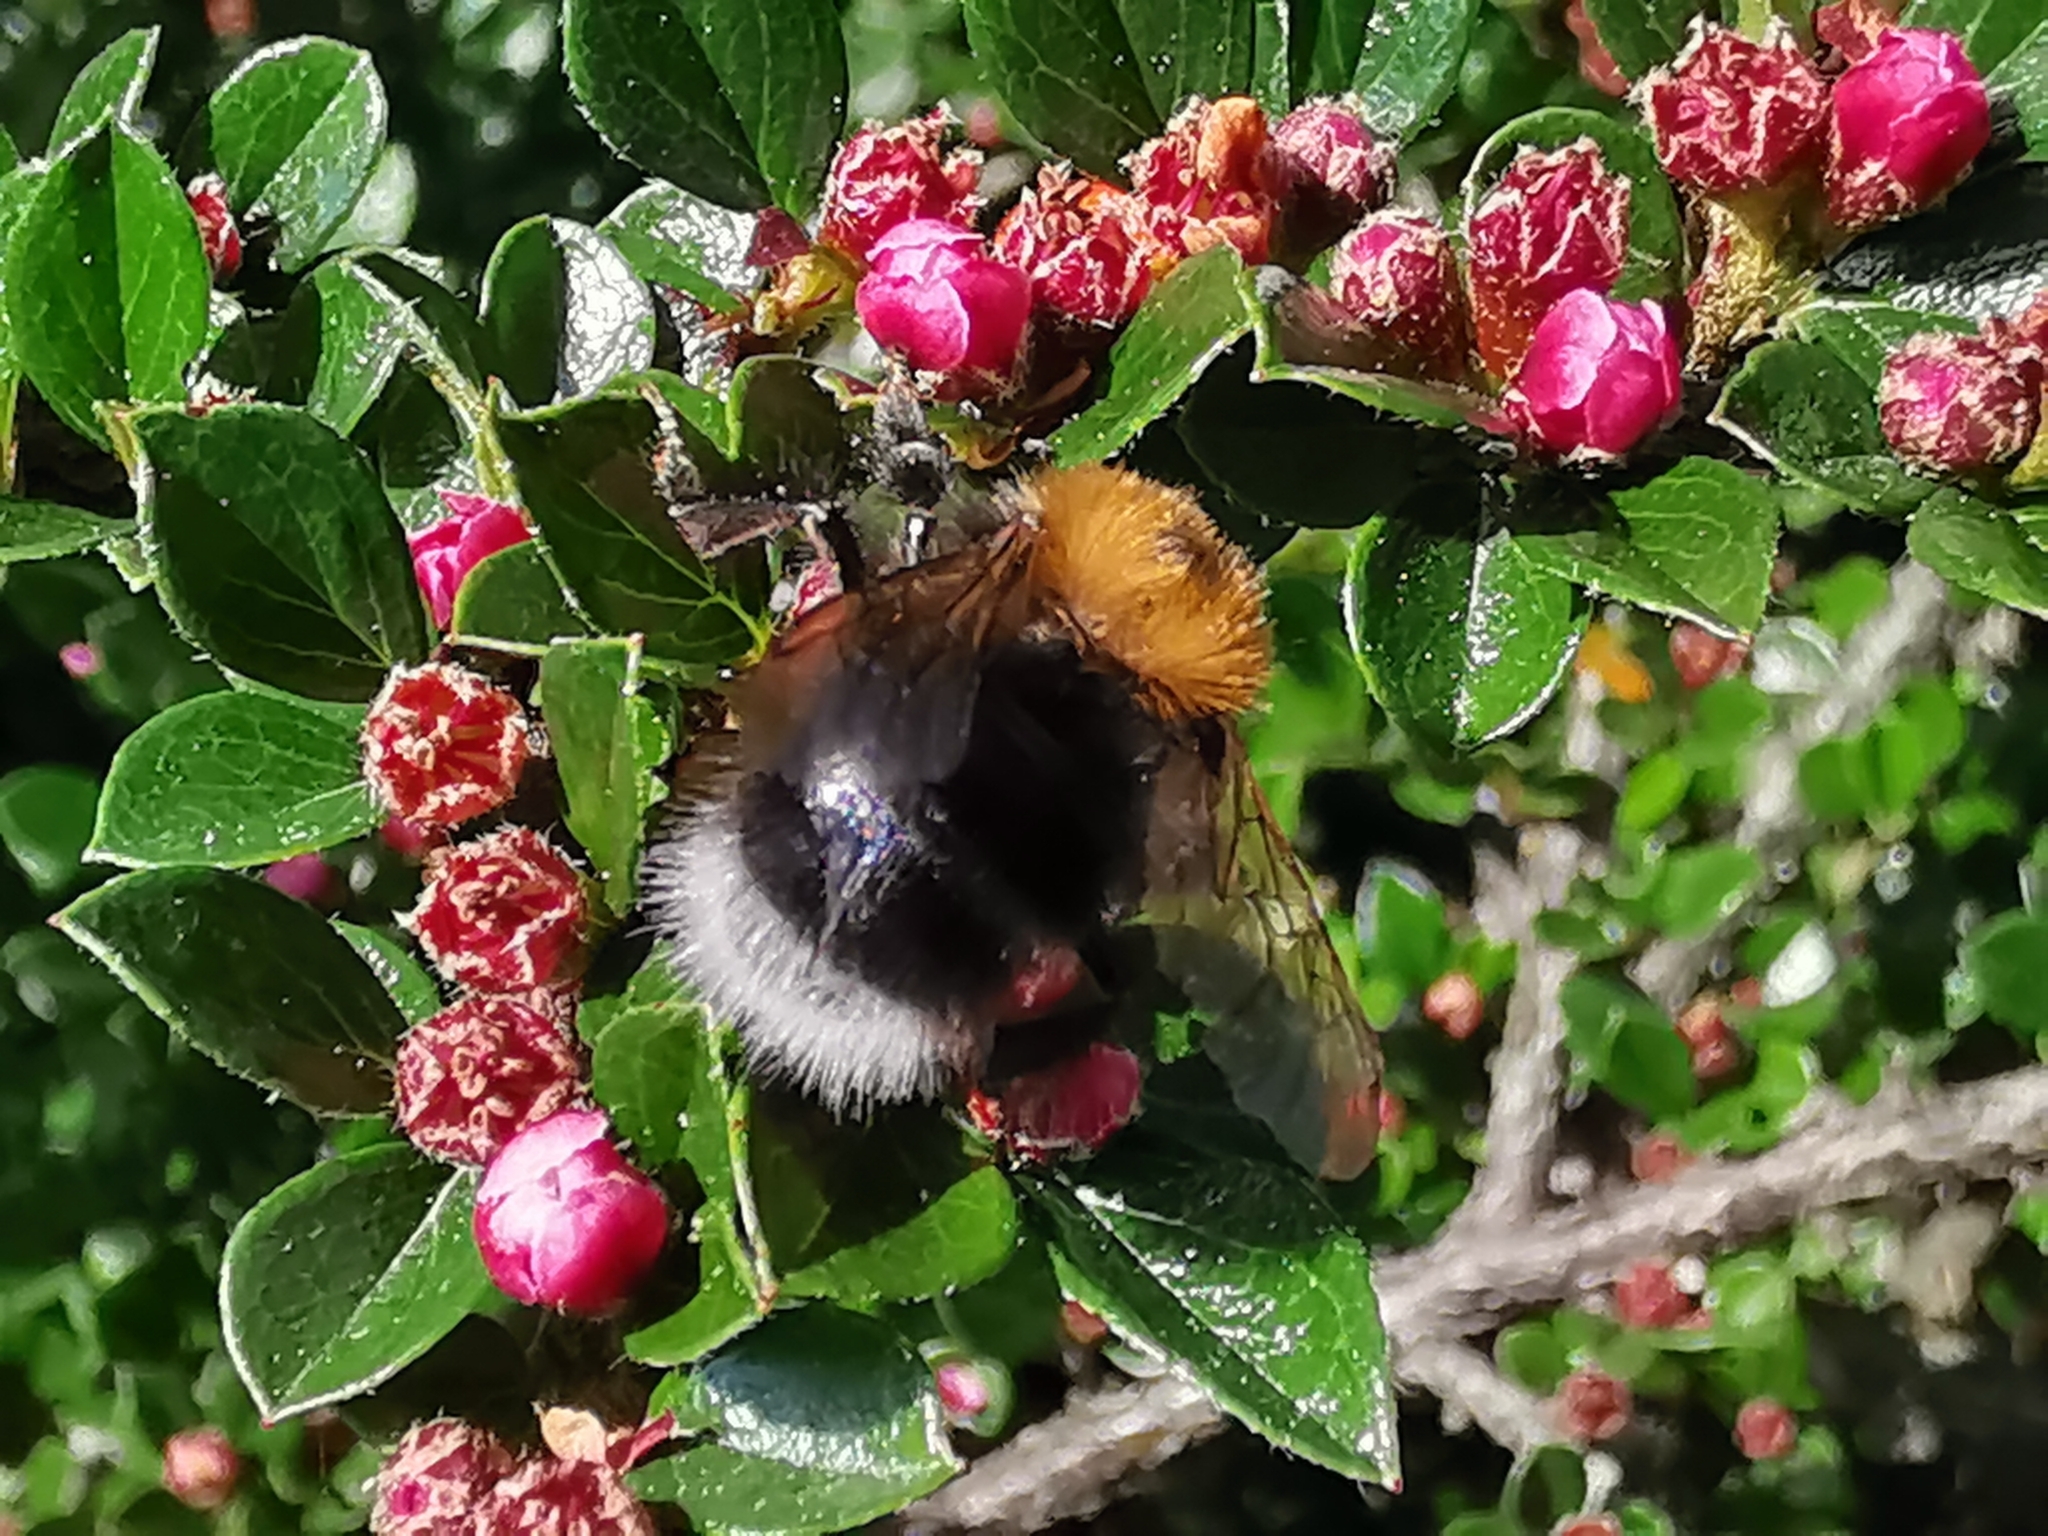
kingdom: Animalia
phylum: Arthropoda
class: Insecta
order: Hymenoptera
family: Apidae
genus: Bombus
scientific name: Bombus hypnorum
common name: New garden bumblebee
